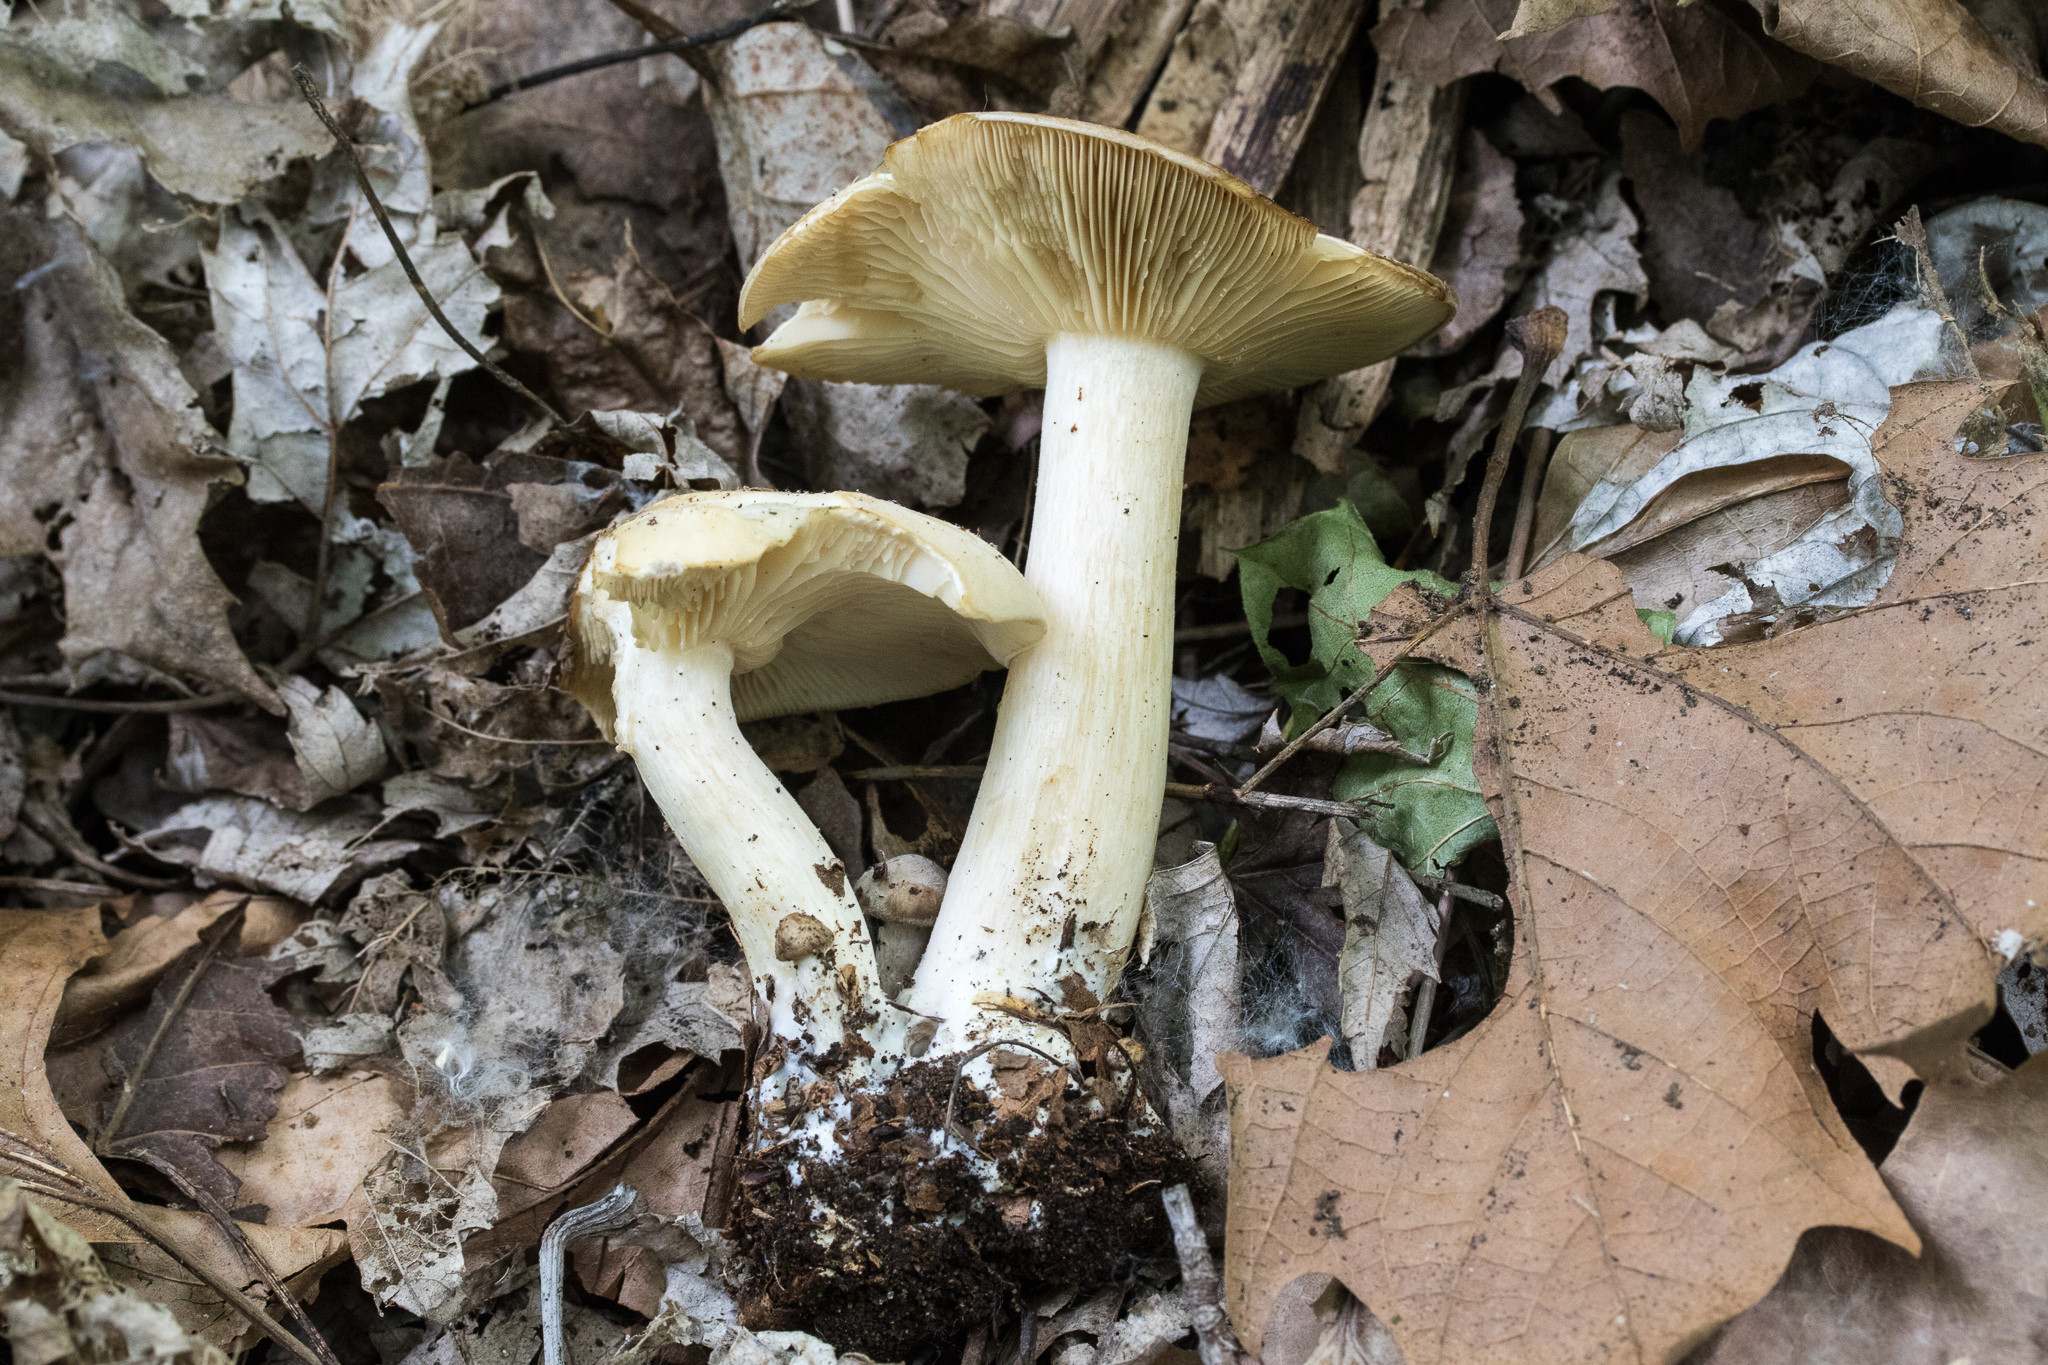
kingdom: Fungi
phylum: Basidiomycota
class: Agaricomycetes
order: Agaricales
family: Lyophyllaceae
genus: Lyophyllum
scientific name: Lyophyllum decastes
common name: Clustered domecap
